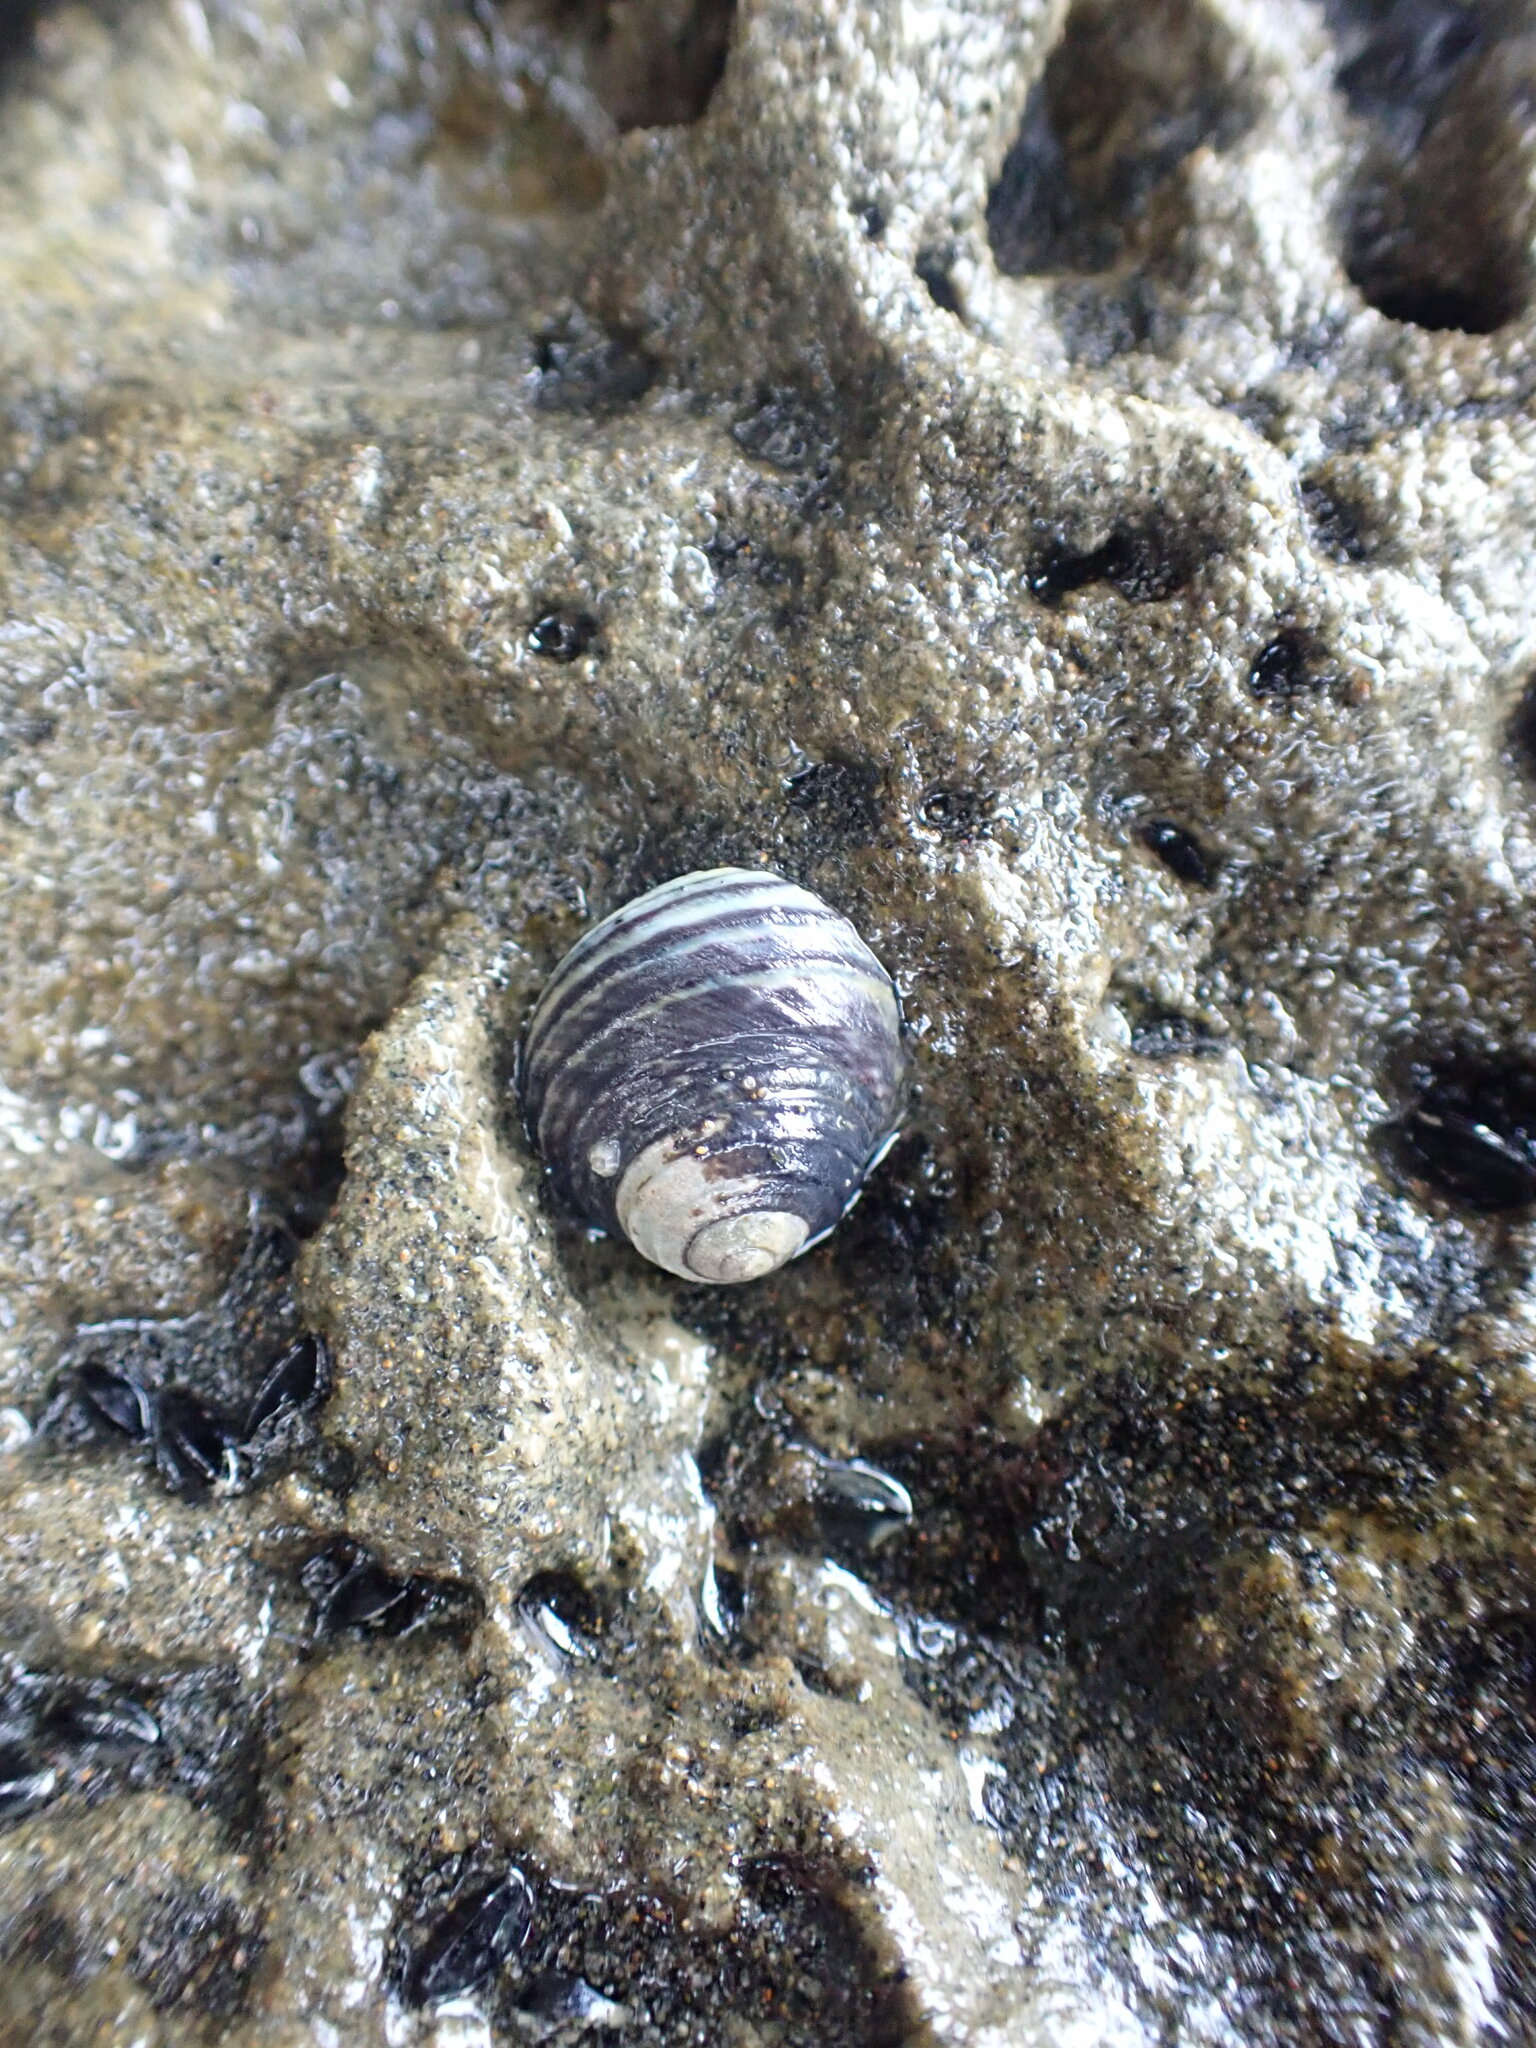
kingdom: Animalia
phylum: Mollusca
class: Gastropoda
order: Trochida
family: Trochidae
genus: Diloma
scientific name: Diloma subrostratum
